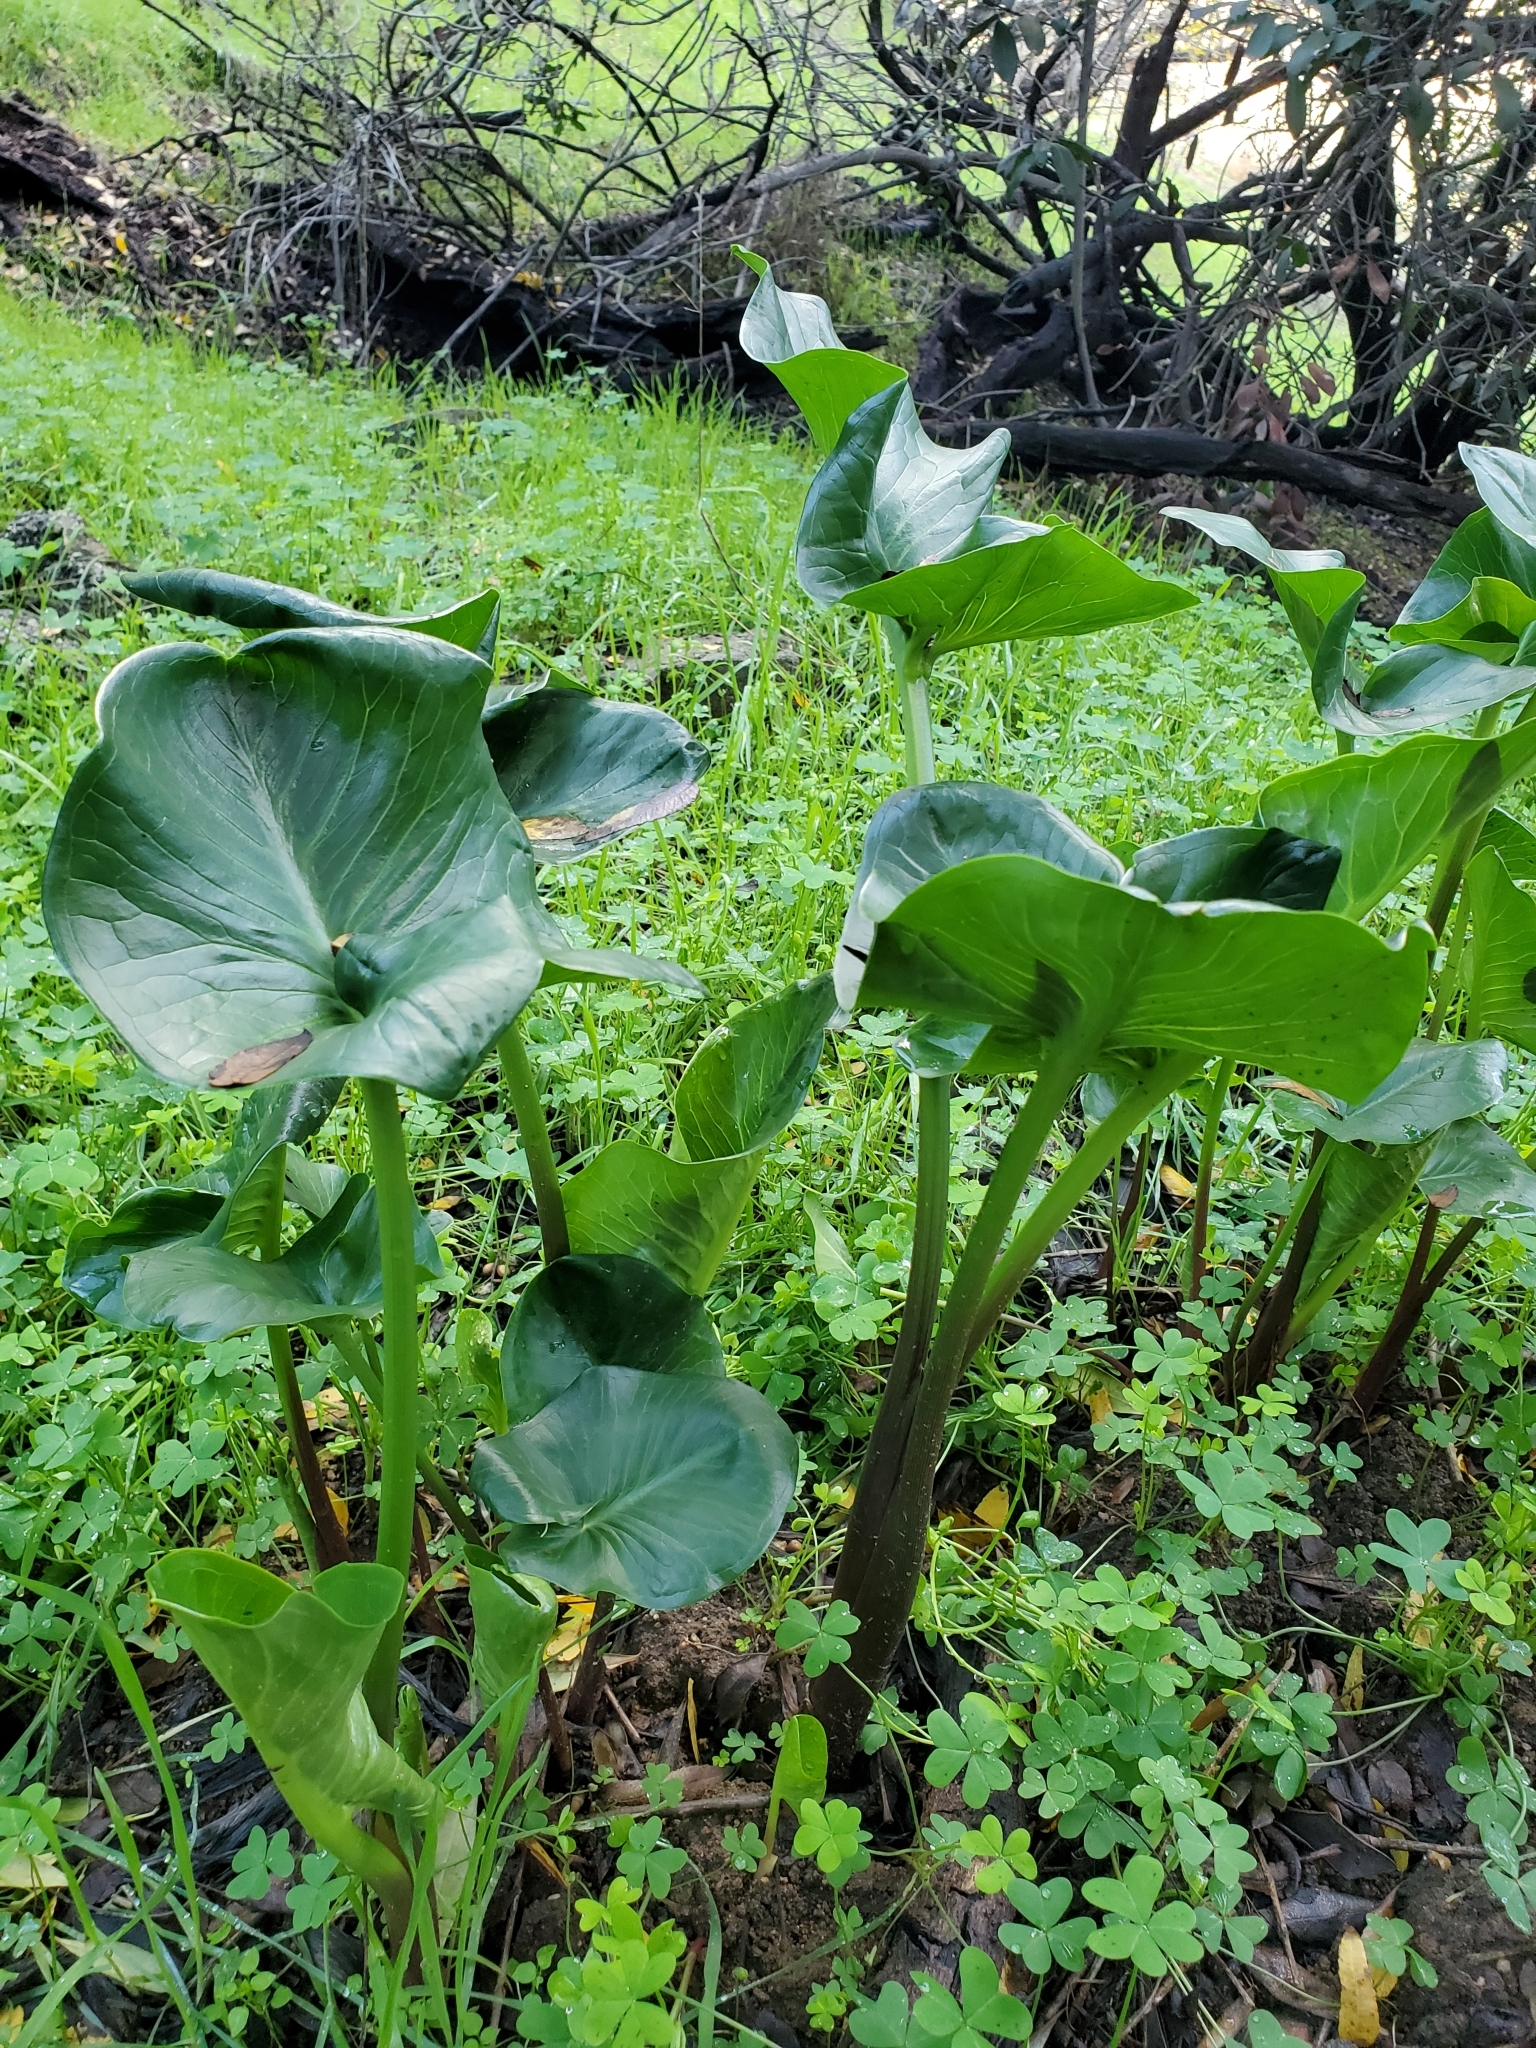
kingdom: Plantae
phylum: Tracheophyta
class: Liliopsida
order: Alismatales
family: Araceae
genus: Zantedeschia
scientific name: Zantedeschia aethiopica
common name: Altar-lily
